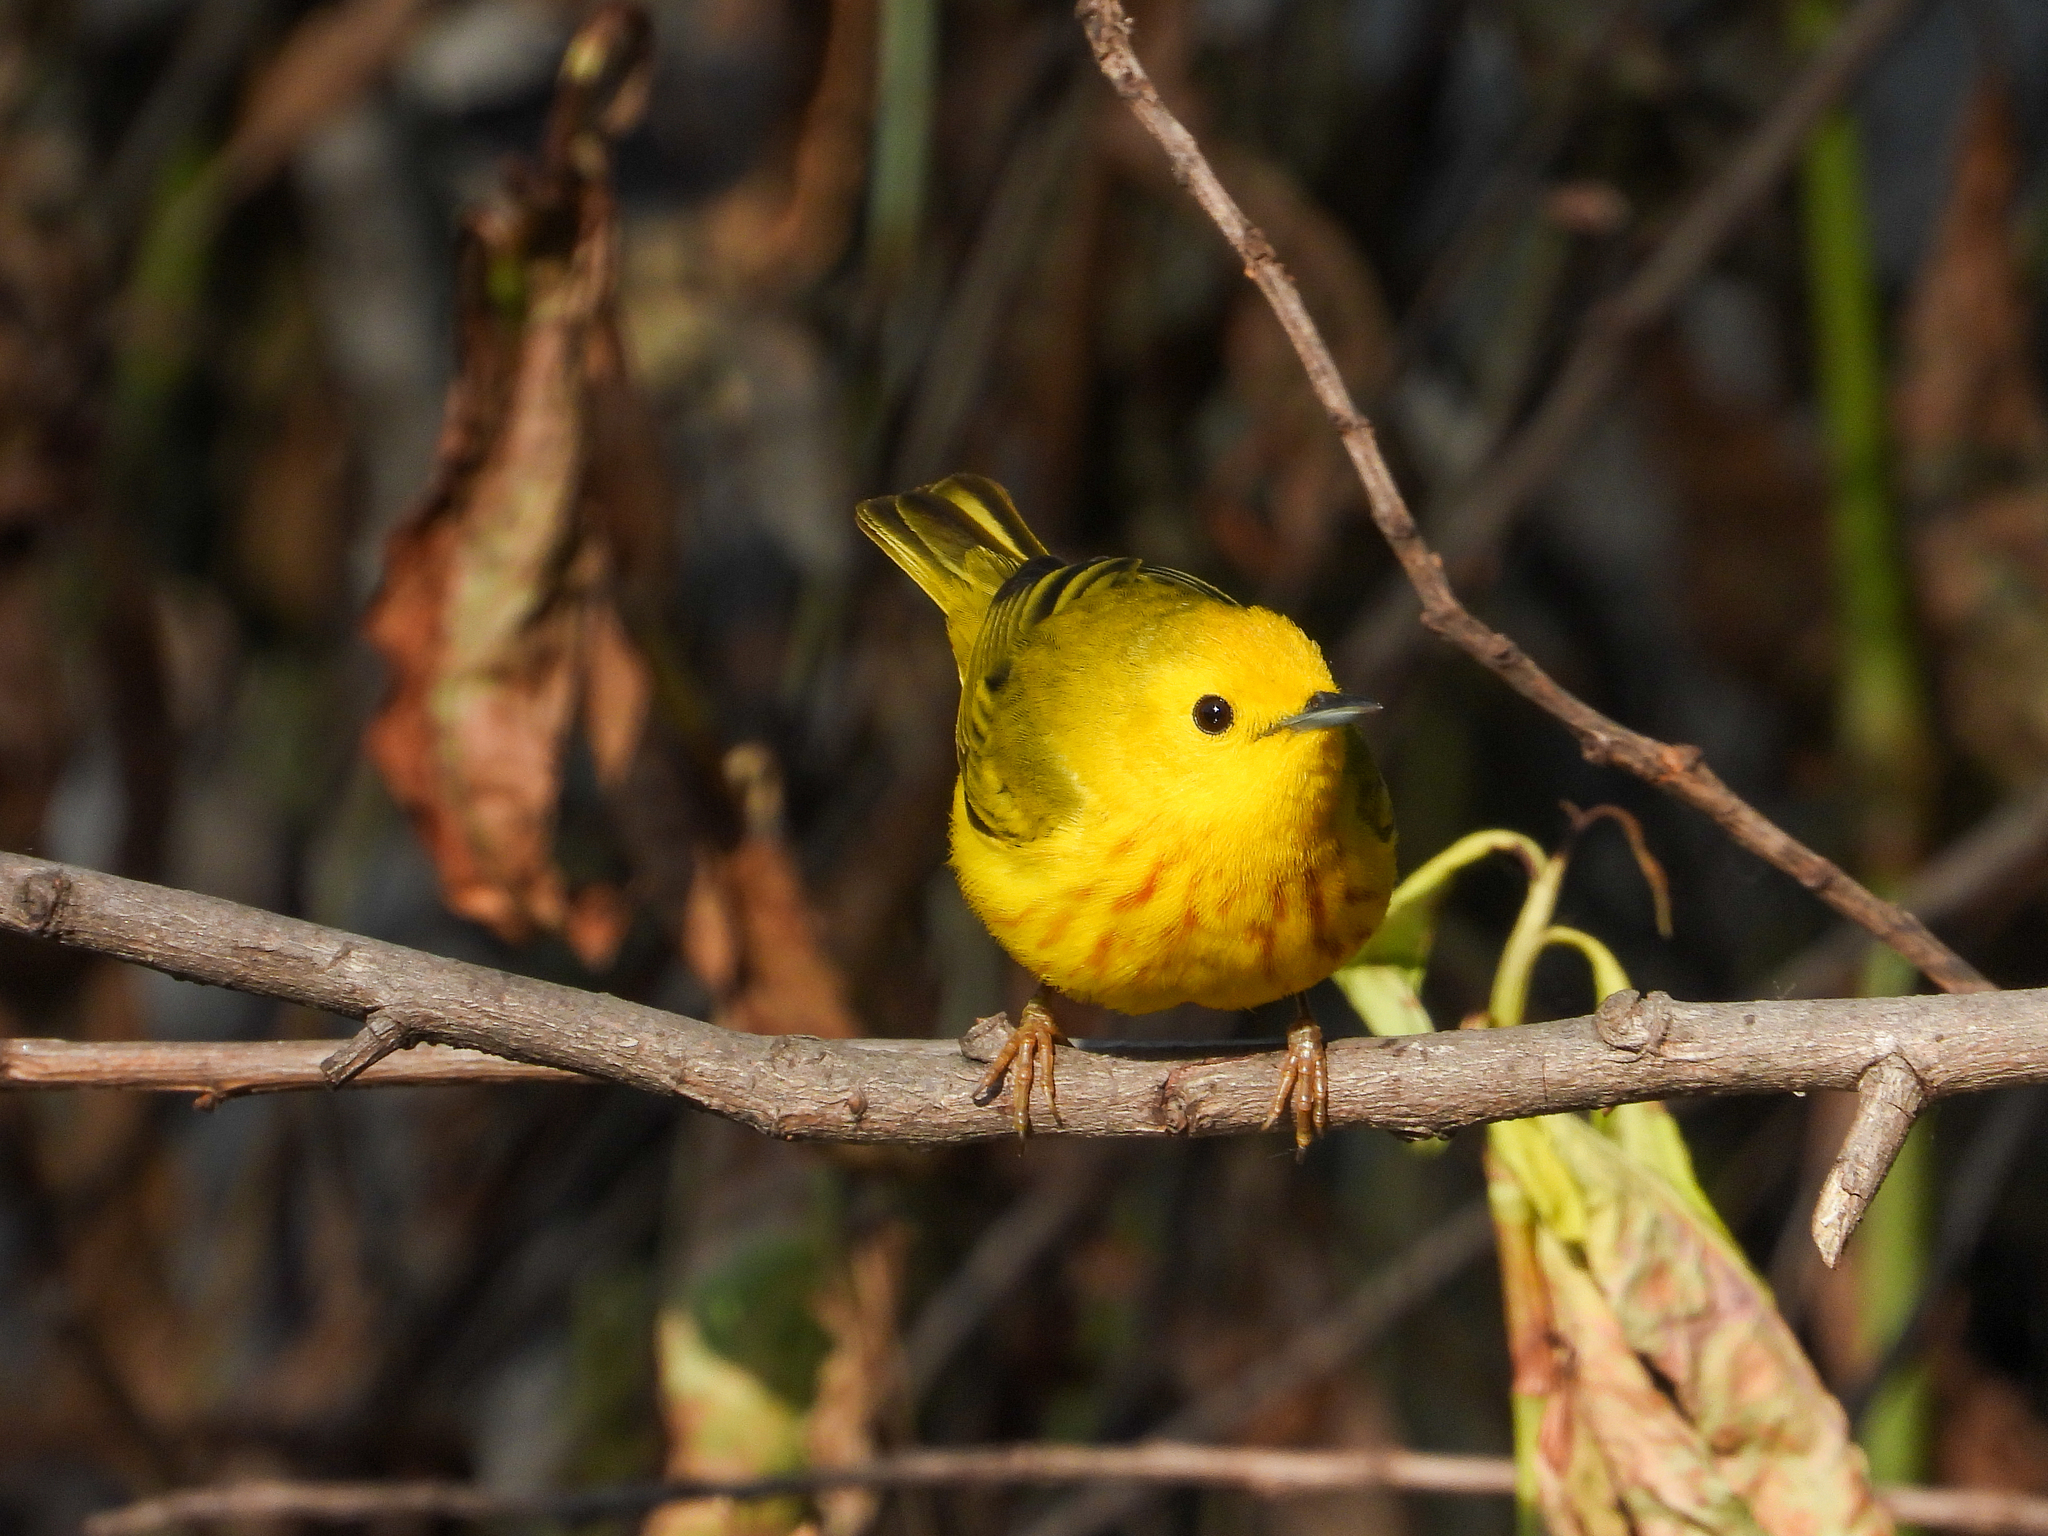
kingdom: Animalia
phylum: Chordata
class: Aves
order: Passeriformes
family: Parulidae
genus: Setophaga
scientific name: Setophaga petechia
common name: Yellow warbler
